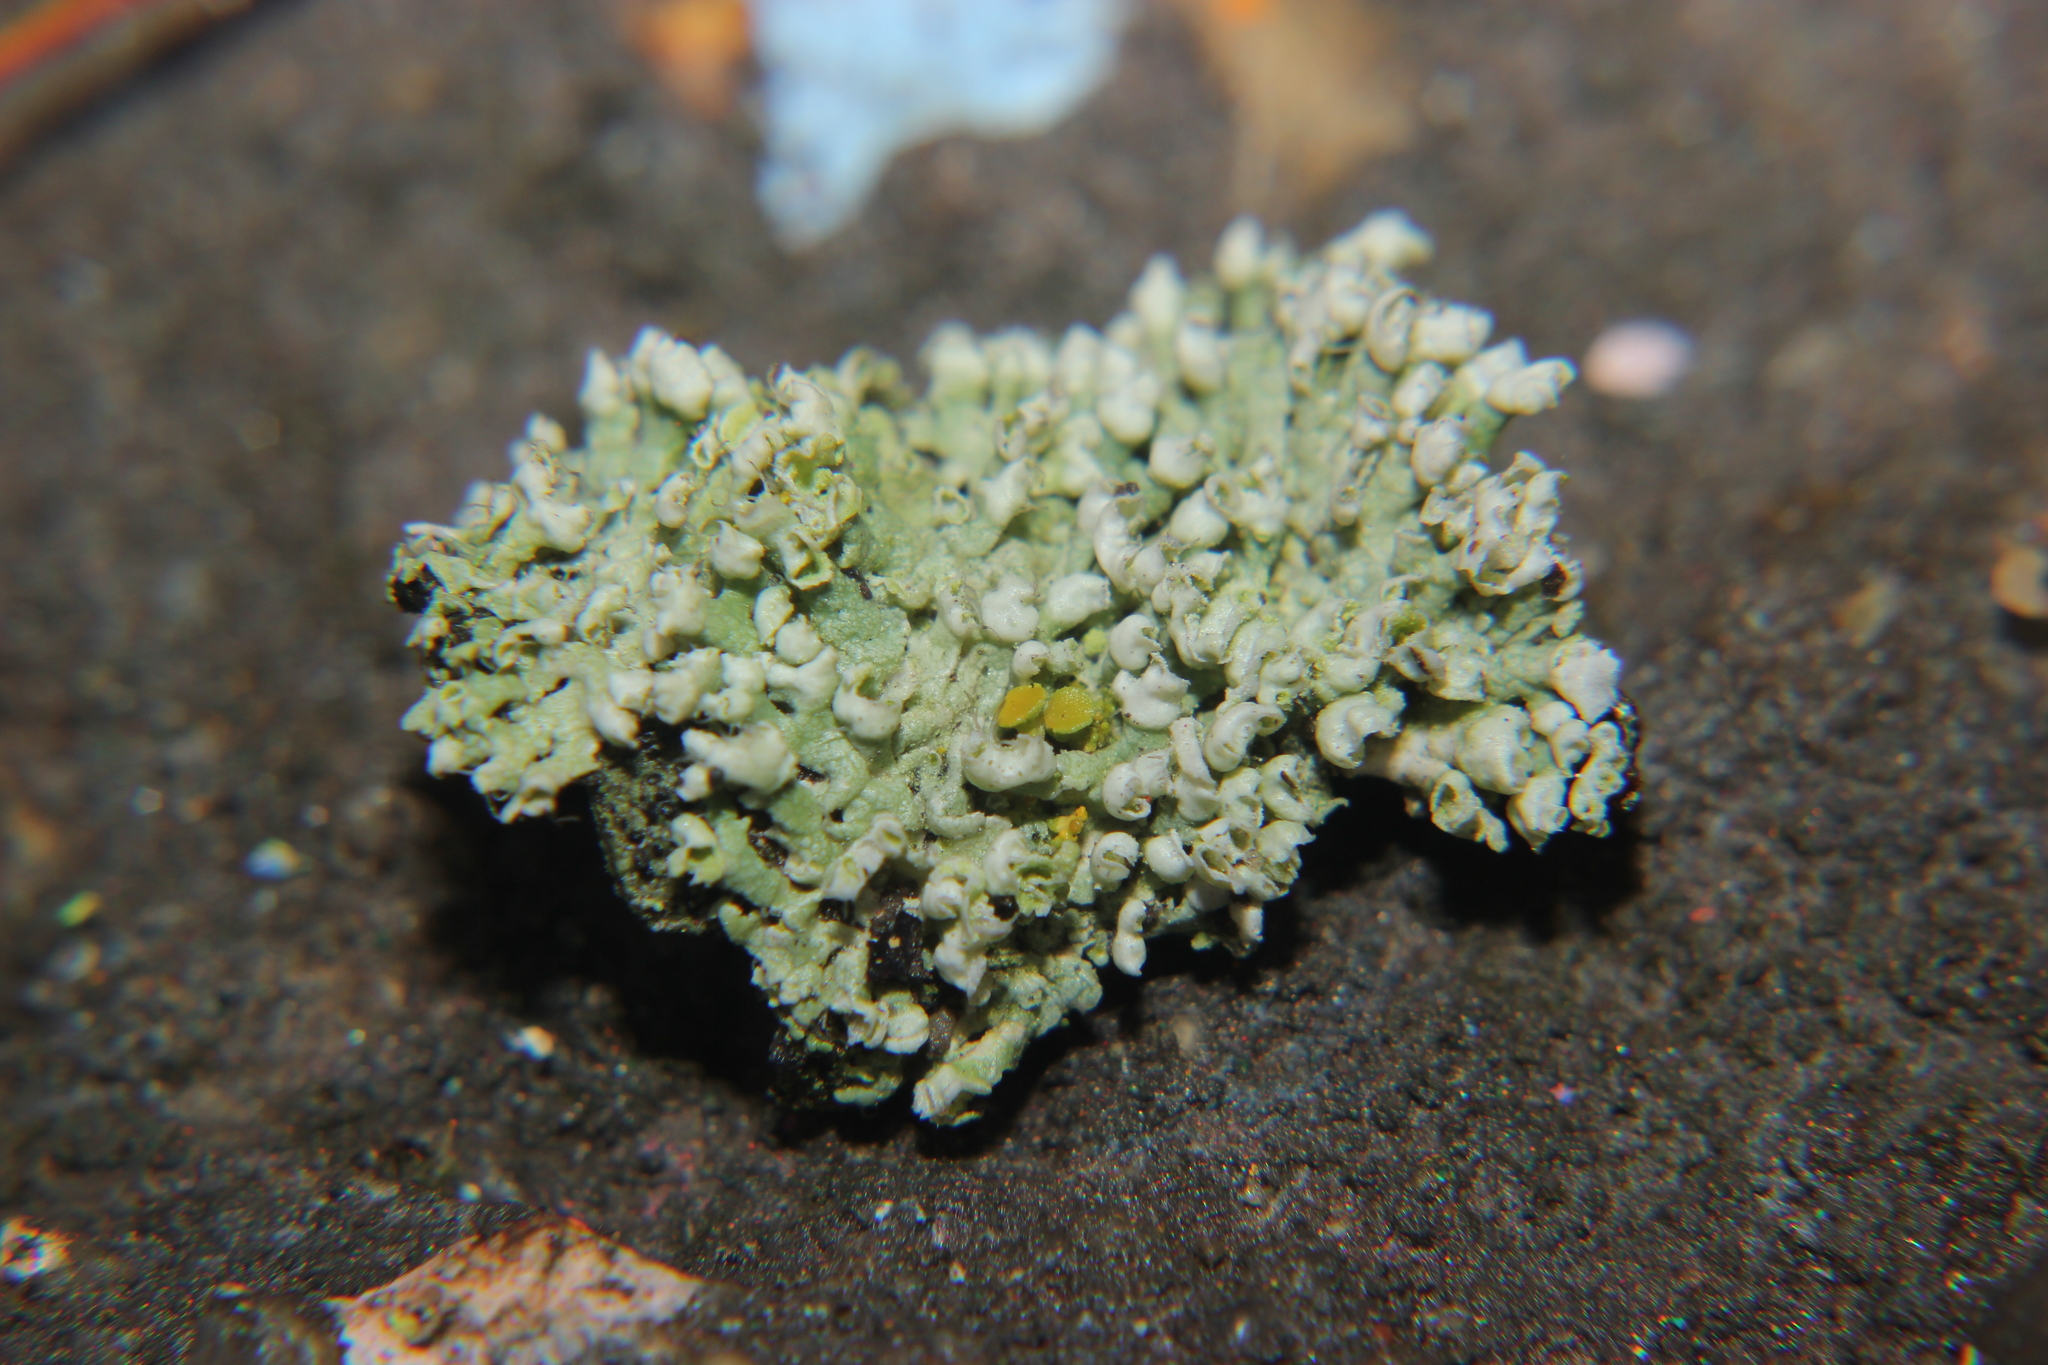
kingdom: Fungi
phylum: Ascomycota
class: Lecanoromycetes
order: Caliciales
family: Physciaceae
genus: Physcia
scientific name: Physcia adscendens
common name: Hooded rosette lichen
